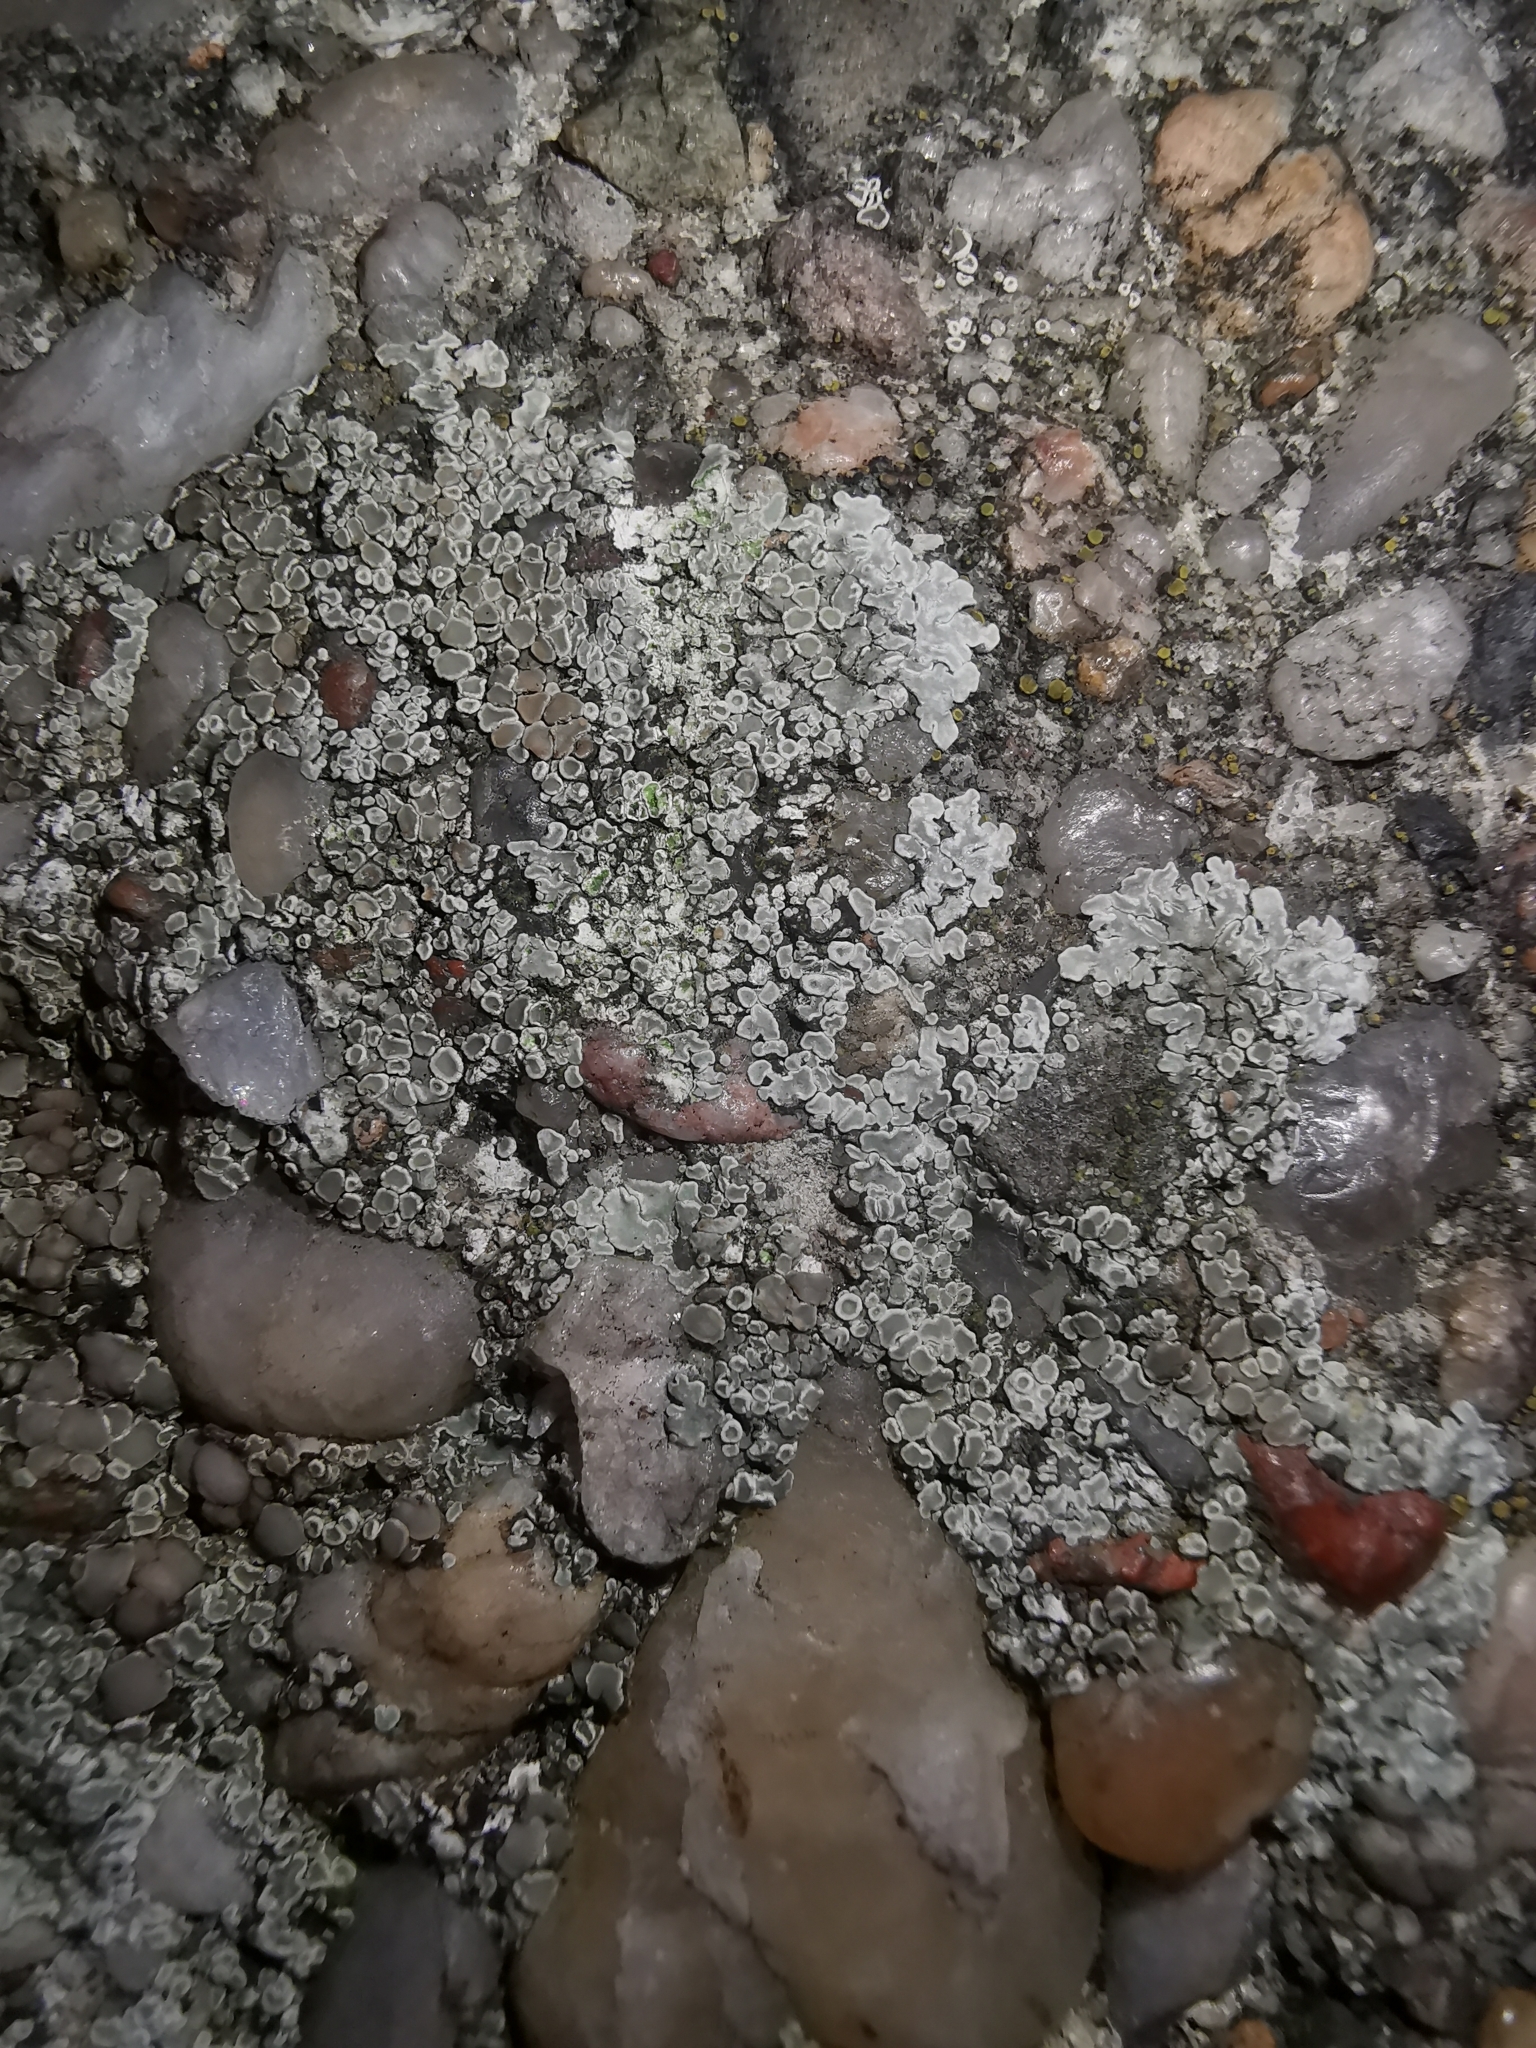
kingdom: Fungi
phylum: Ascomycota
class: Lecanoromycetes
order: Lecanorales
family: Lecanoraceae
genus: Protoparmeliopsis
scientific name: Protoparmeliopsis muralis
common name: Stonewall rim lichen
